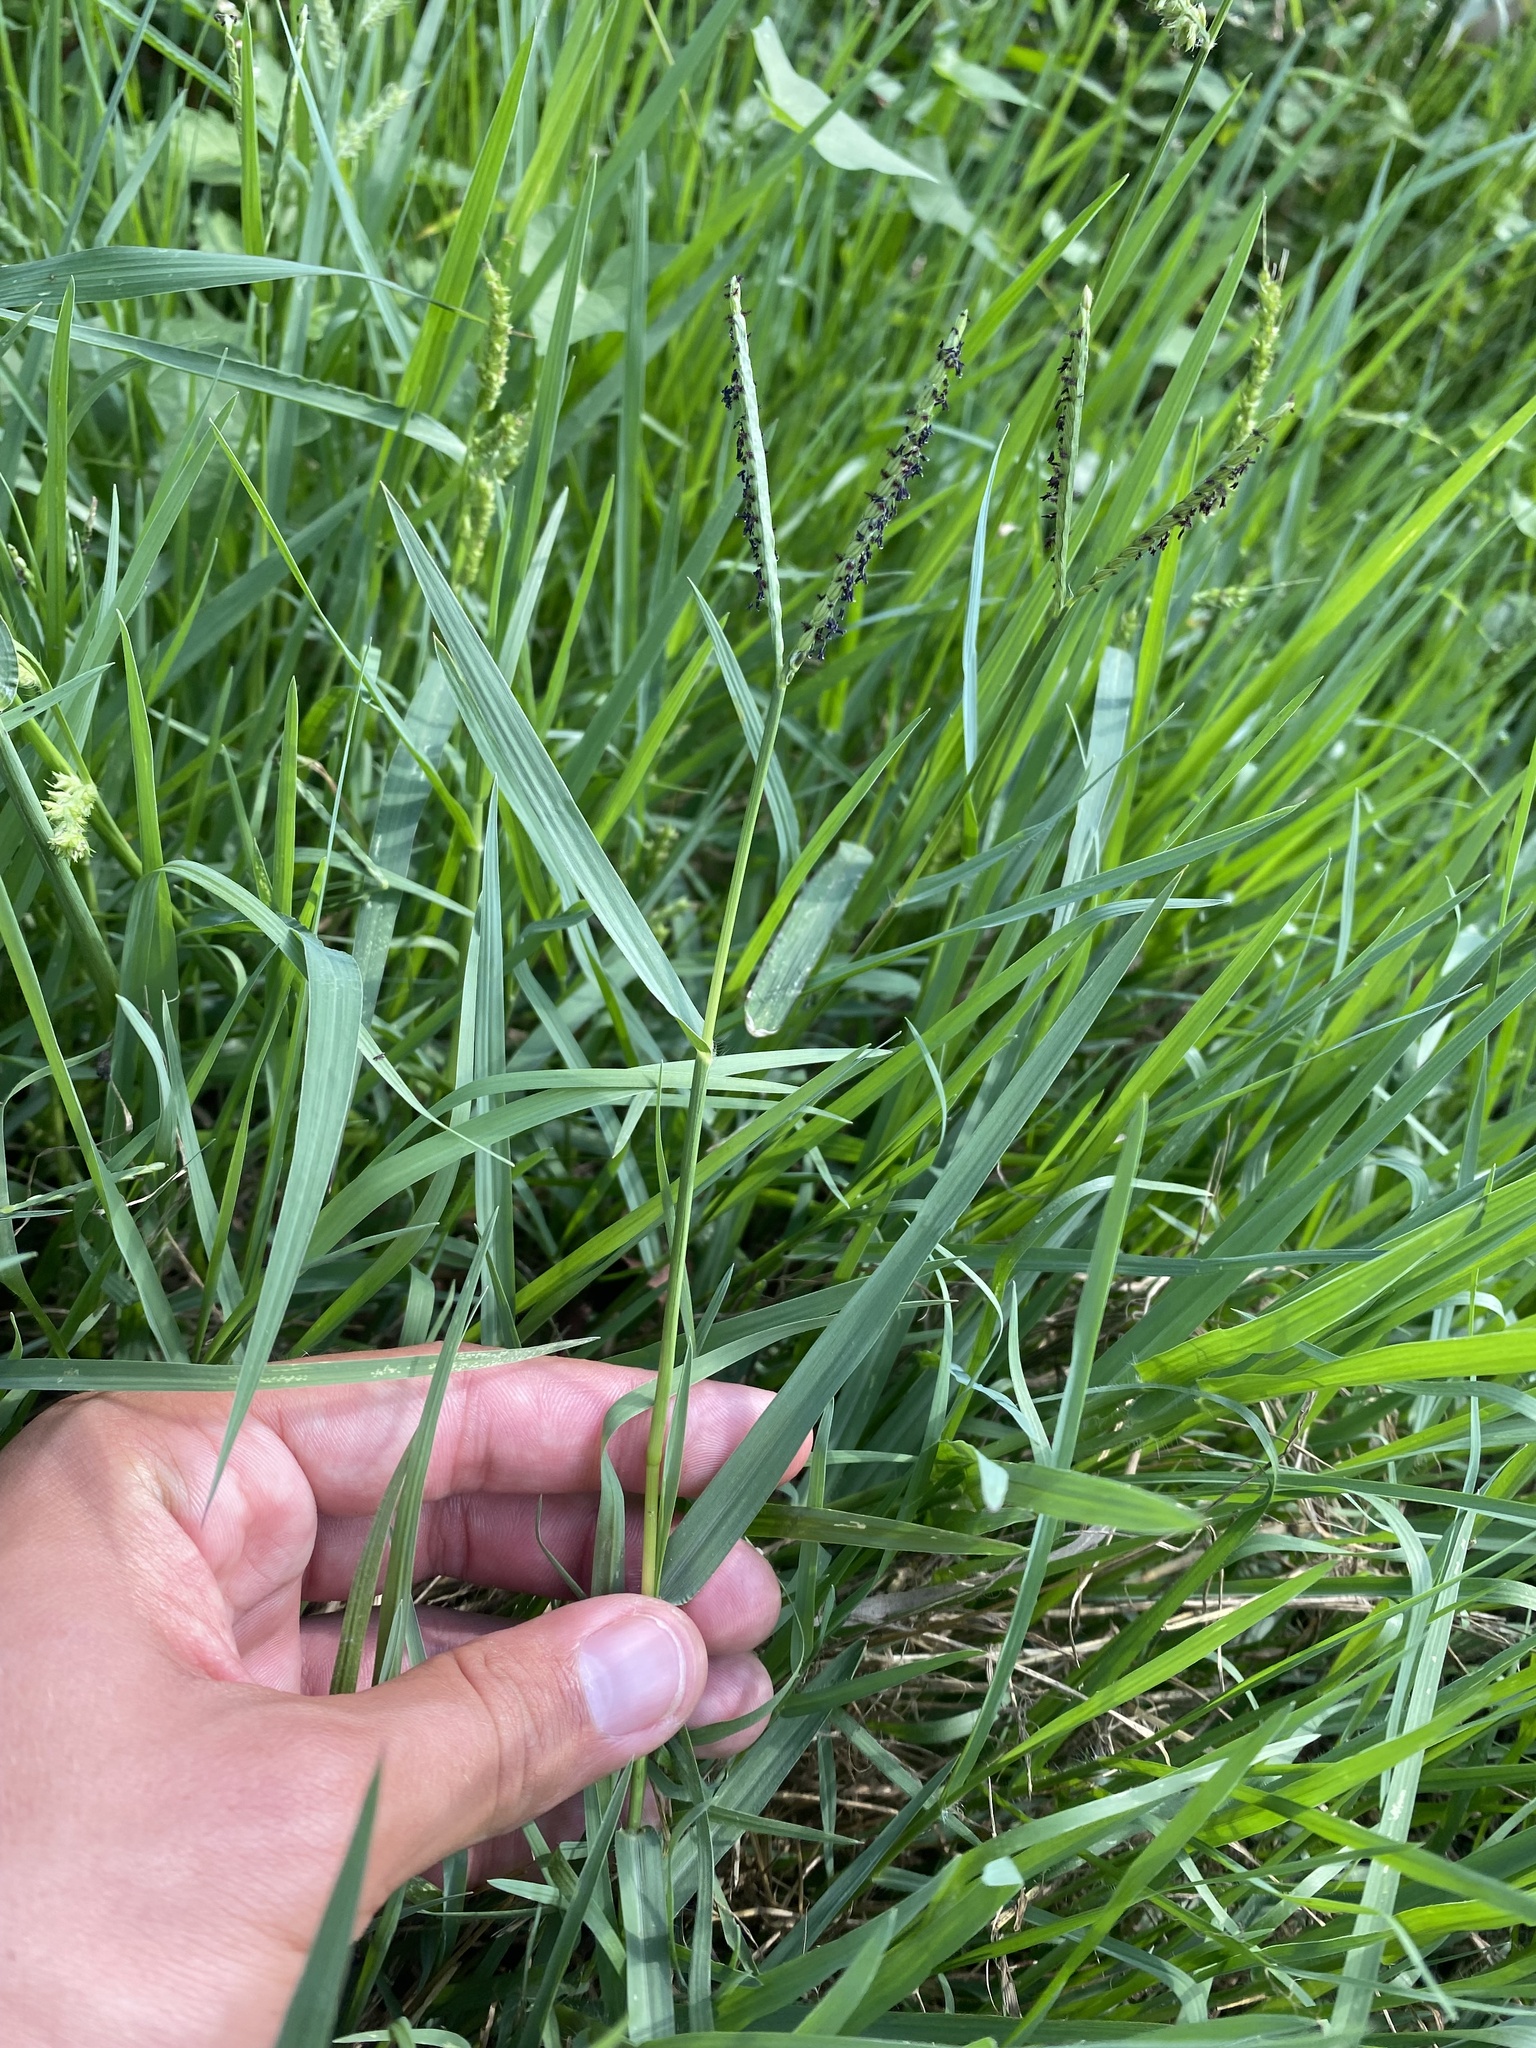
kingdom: Plantae
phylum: Tracheophyta
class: Liliopsida
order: Poales
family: Poaceae
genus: Paspalum
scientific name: Paspalum distichum
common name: Knotgrass
